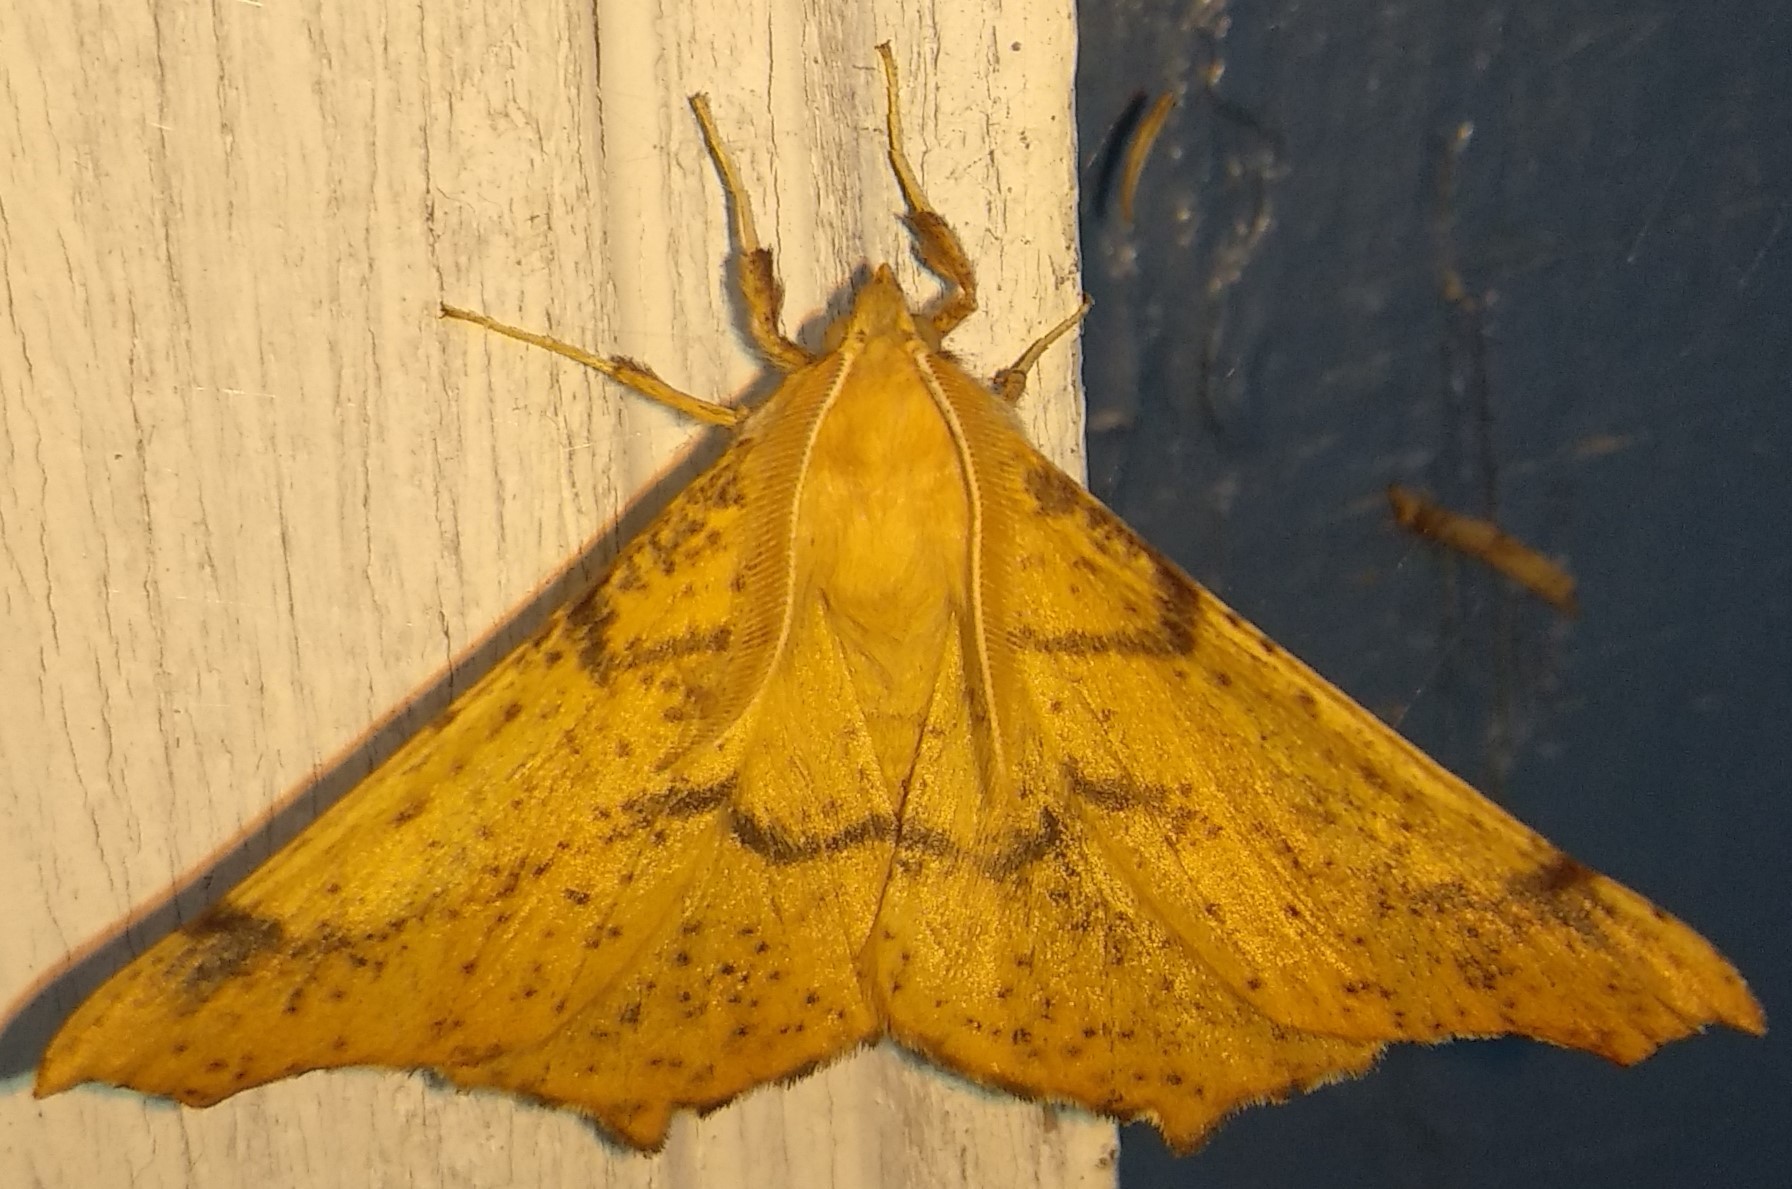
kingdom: Animalia
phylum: Arthropoda
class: Insecta
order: Lepidoptera
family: Geometridae
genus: Ennomos
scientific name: Ennomos magnaria
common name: Maple spanworm
